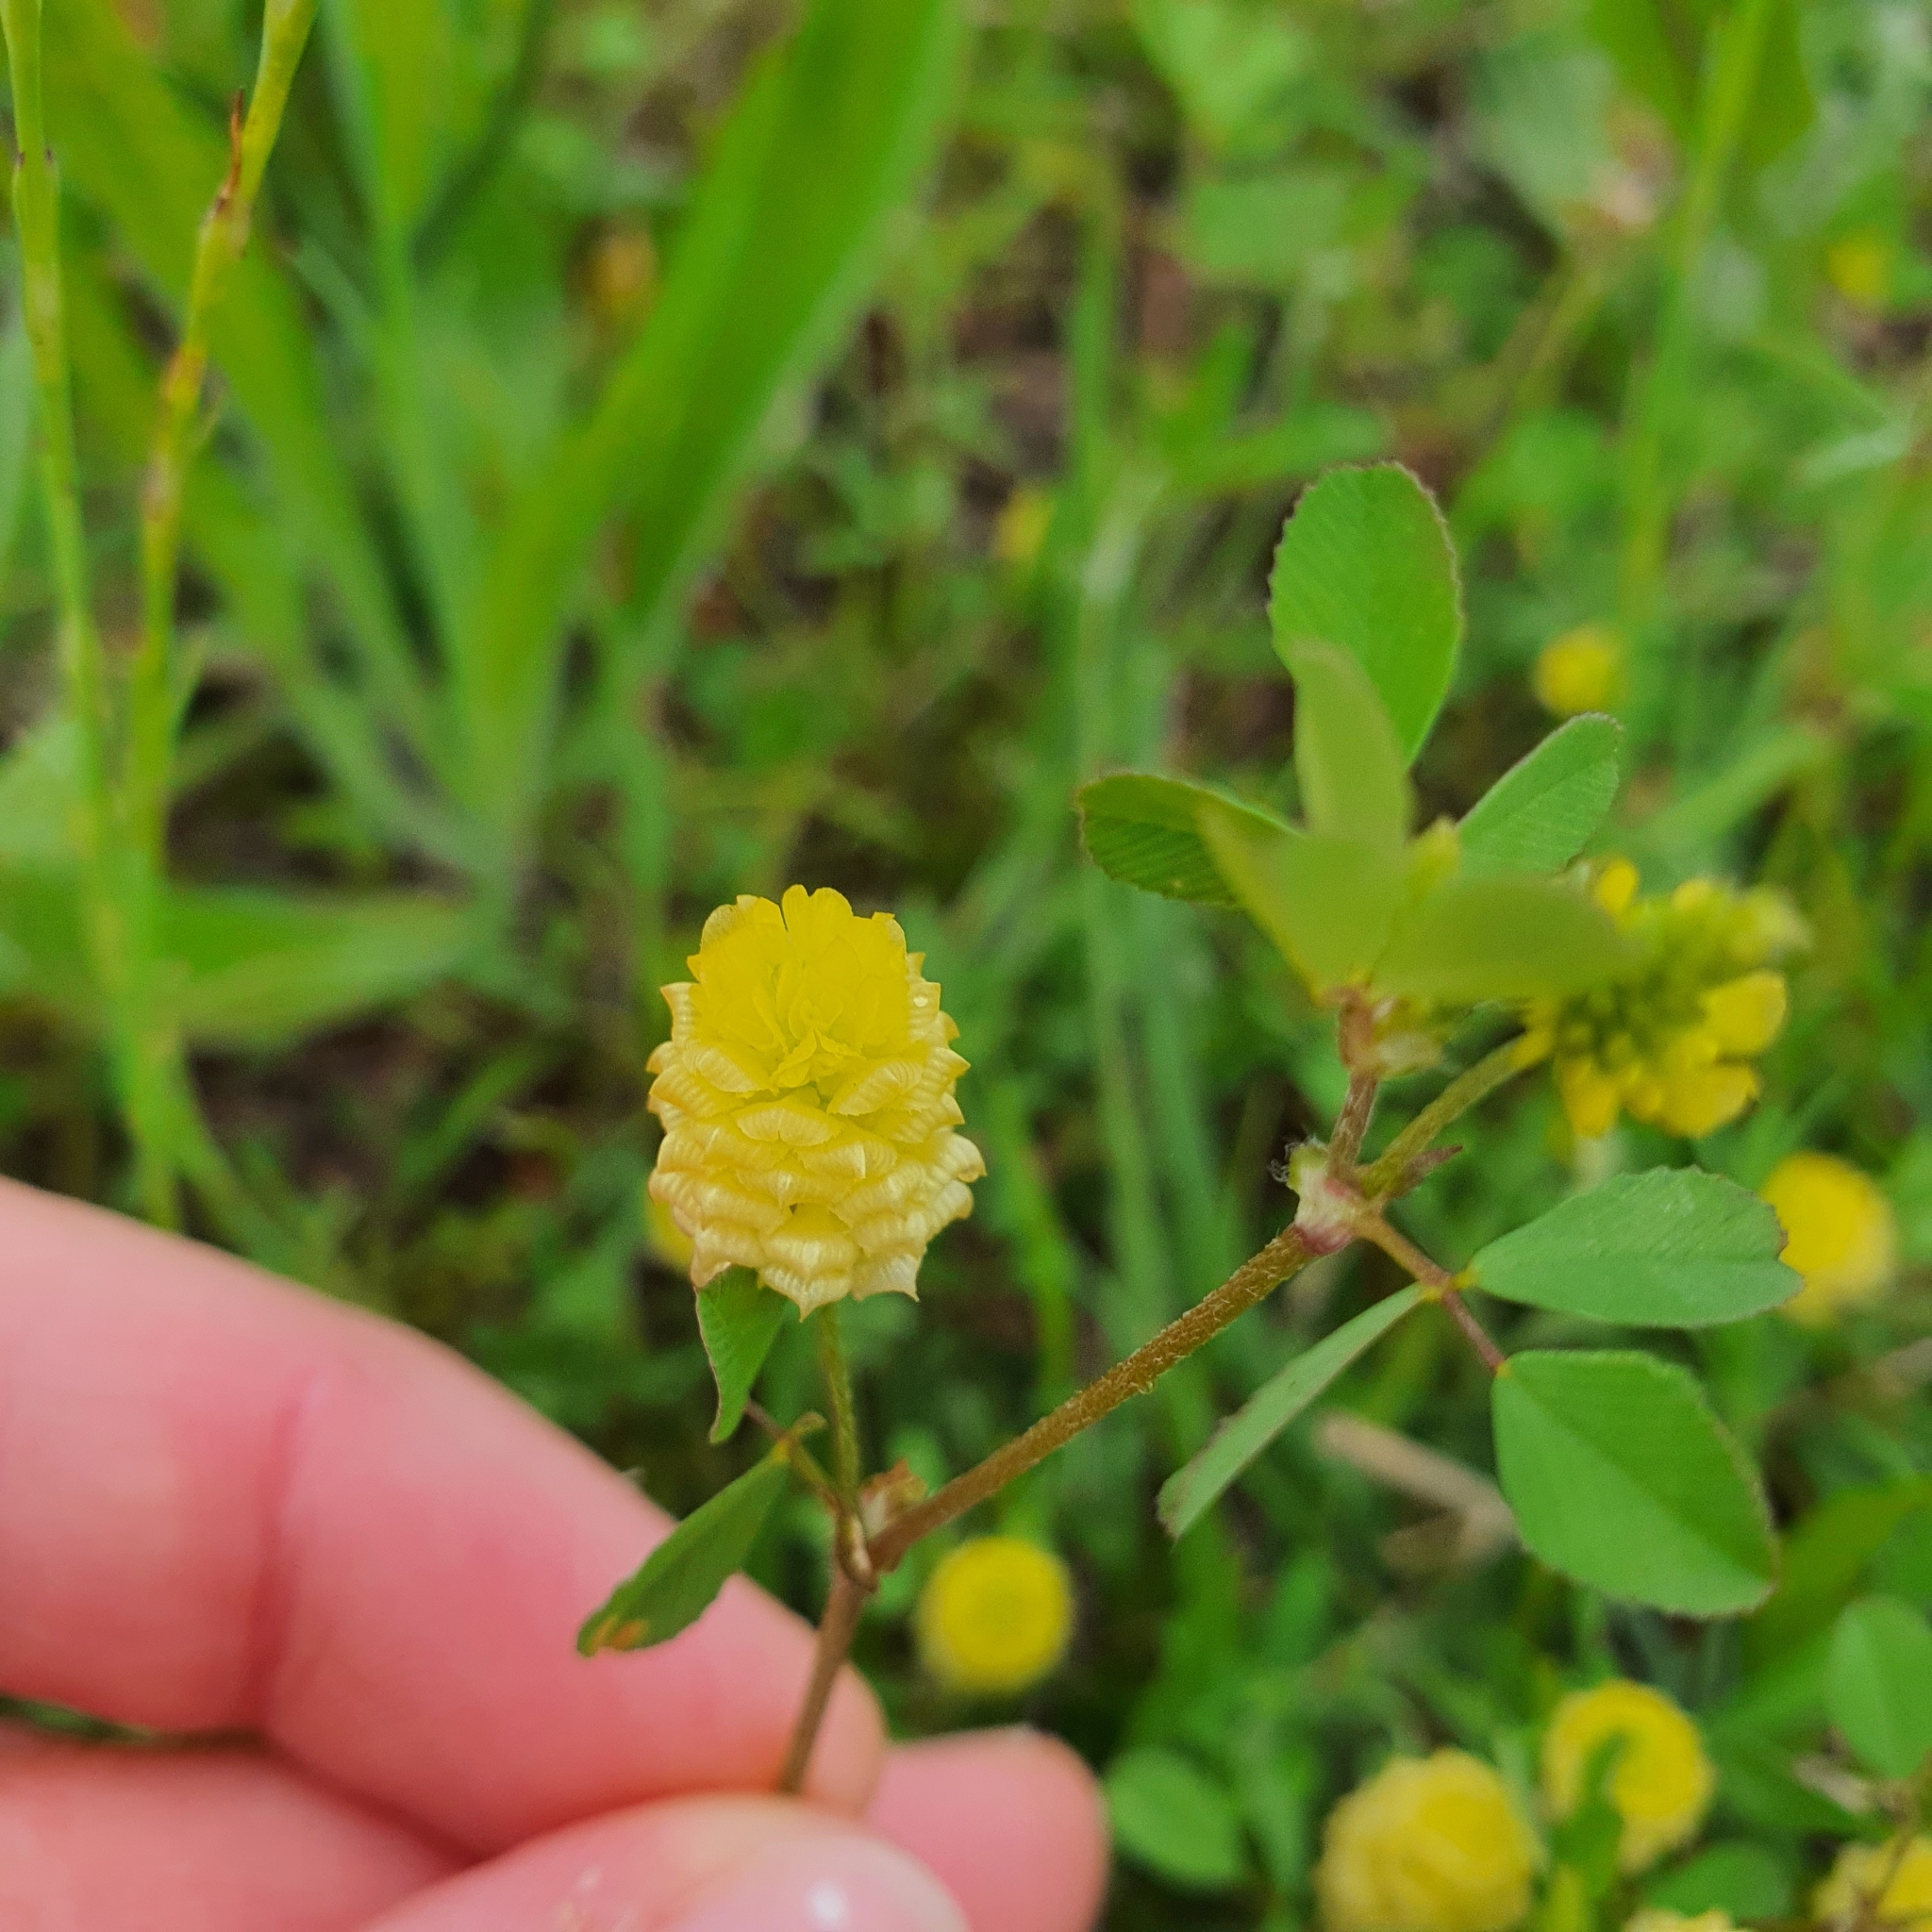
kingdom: Plantae
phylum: Tracheophyta
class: Magnoliopsida
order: Fabales
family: Fabaceae
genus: Trifolium
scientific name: Trifolium campestre
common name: Field clover
